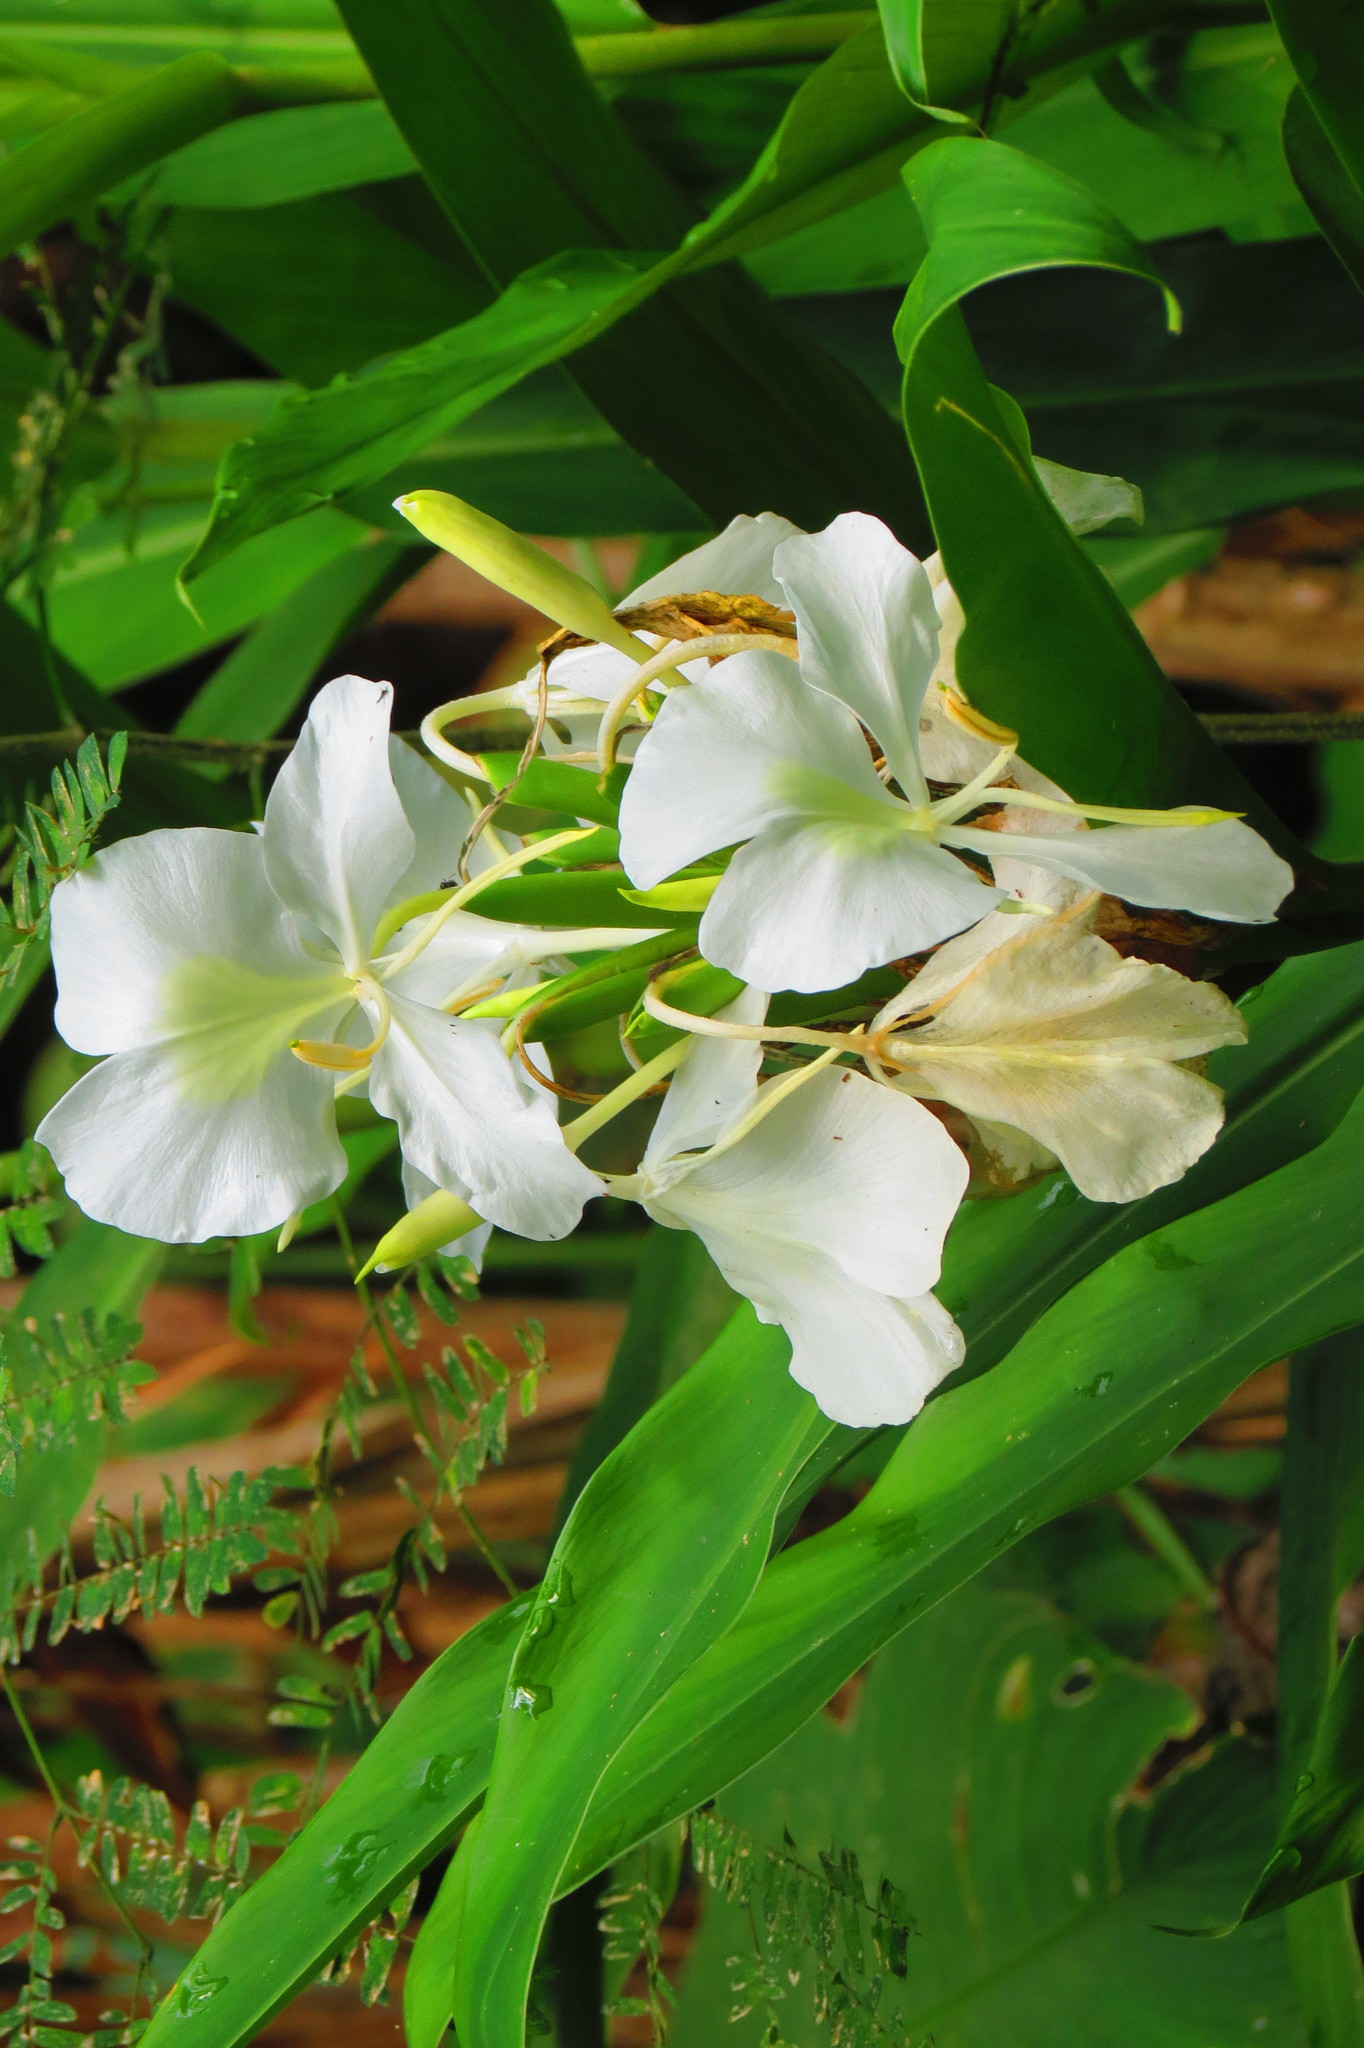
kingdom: Plantae
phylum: Tracheophyta
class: Liliopsida
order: Zingiberales
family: Zingiberaceae
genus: Hedychium
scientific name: Hedychium coronarium
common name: White garland-lily
